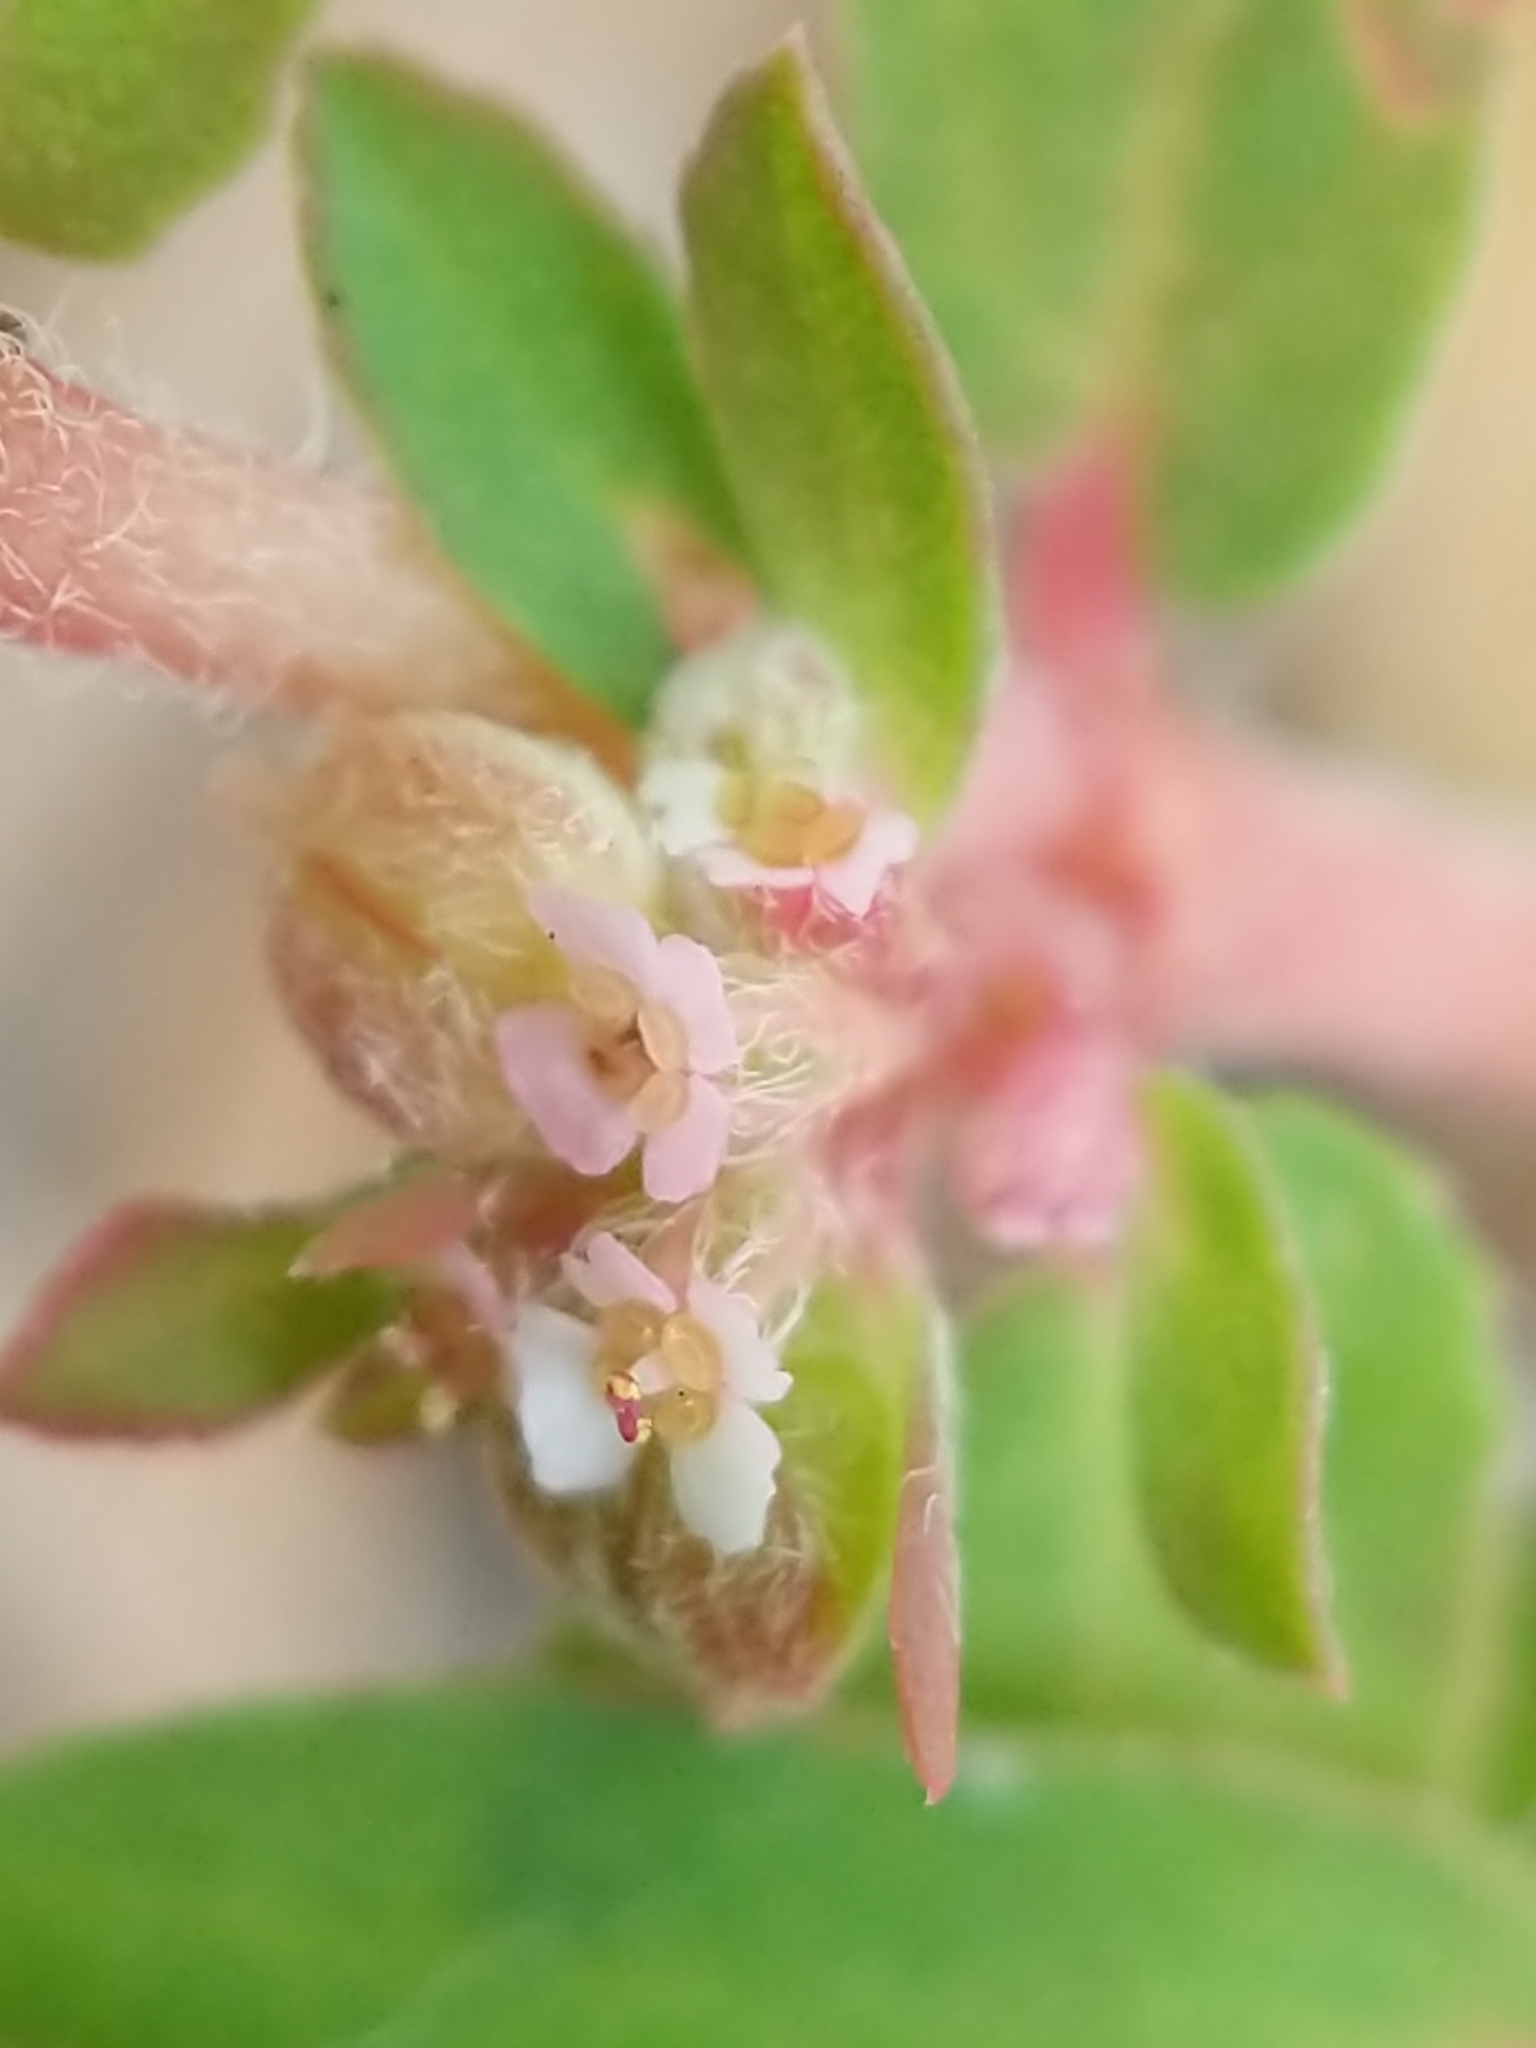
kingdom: Plantae
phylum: Tracheophyta
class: Magnoliopsida
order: Malpighiales
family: Euphorbiaceae
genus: Euphorbia
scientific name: Euphorbia maculata
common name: Spotted spurge
